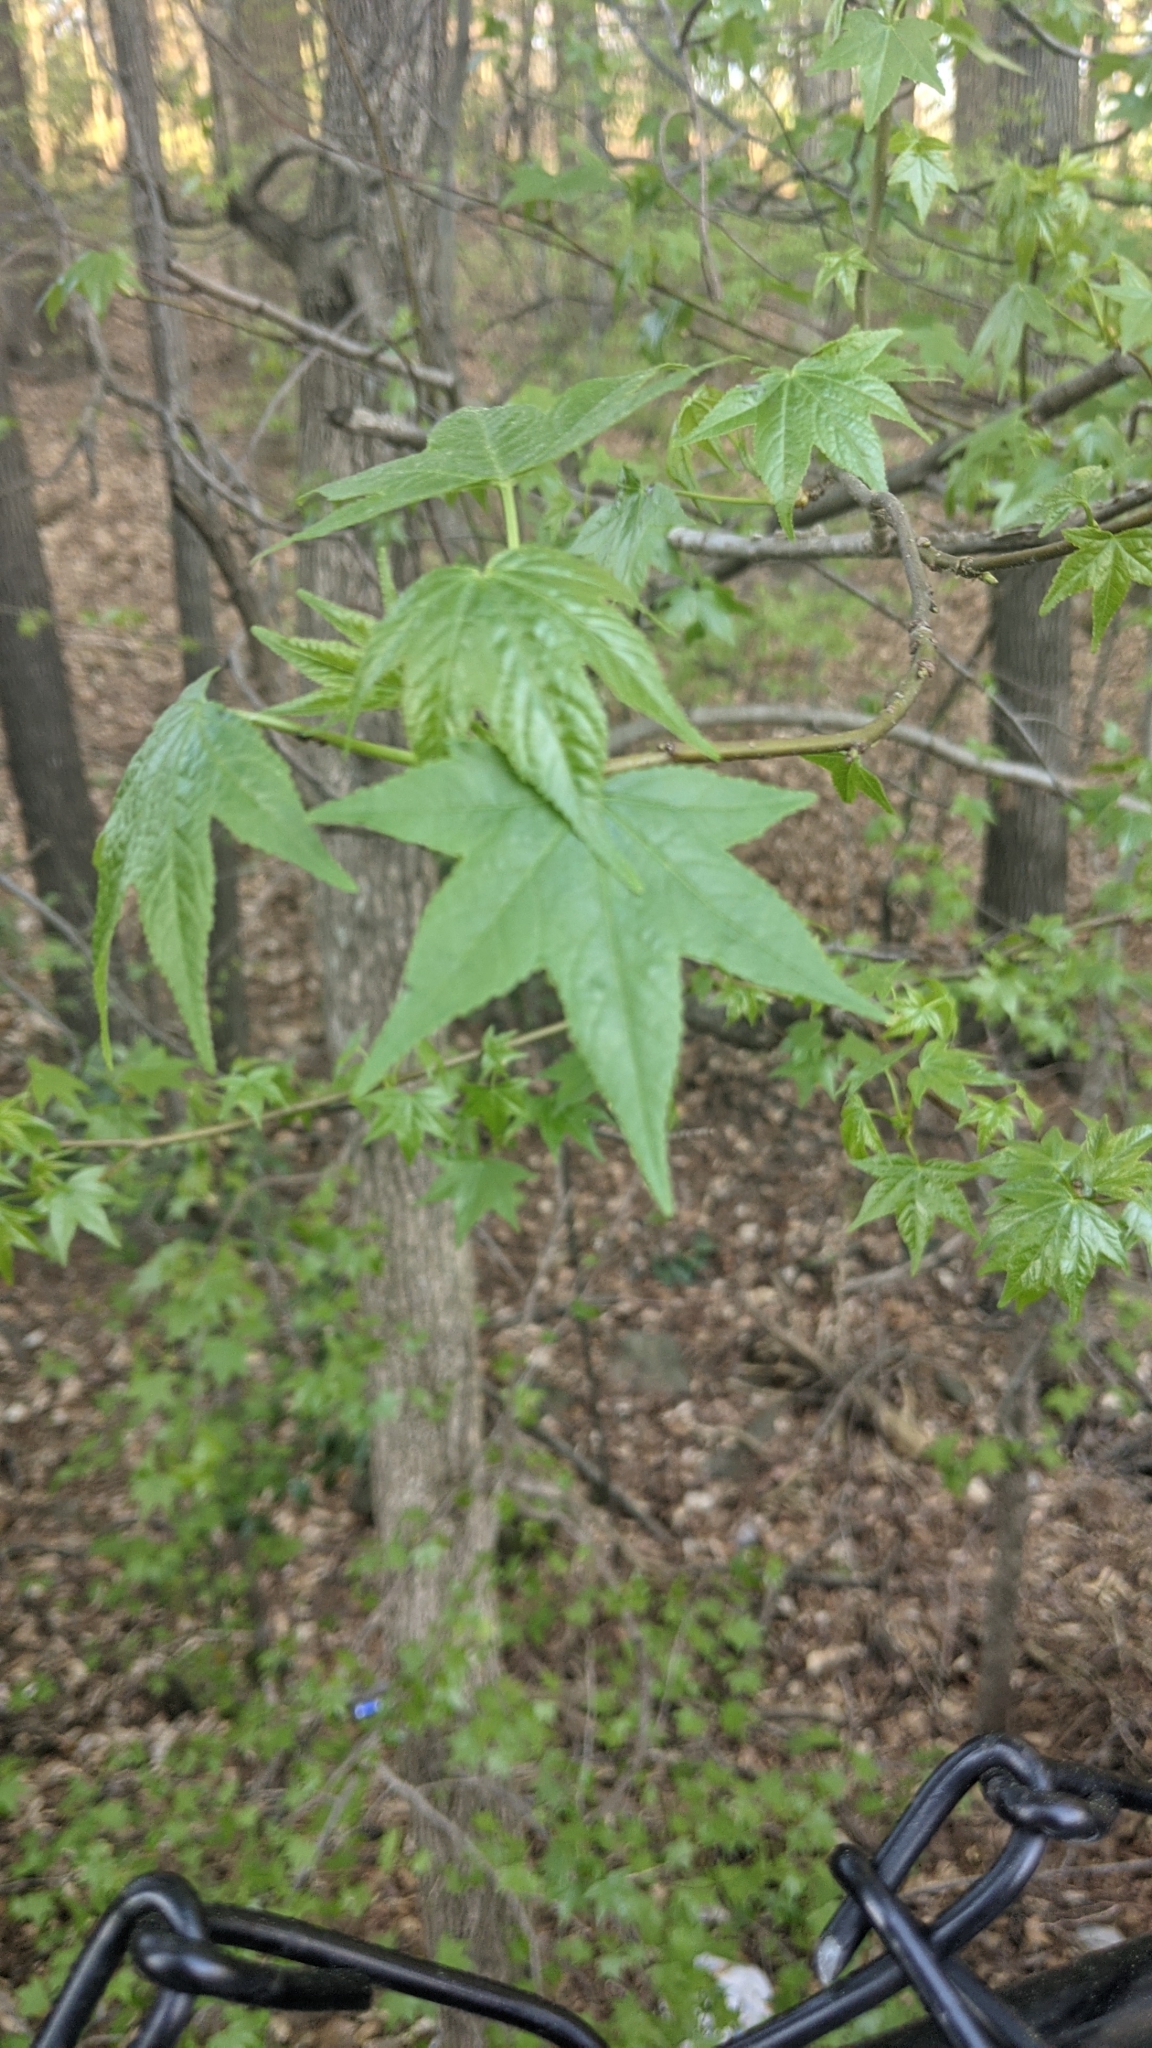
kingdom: Plantae
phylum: Tracheophyta
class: Magnoliopsida
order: Saxifragales
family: Altingiaceae
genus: Liquidambar
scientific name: Liquidambar styraciflua
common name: Sweet gum
